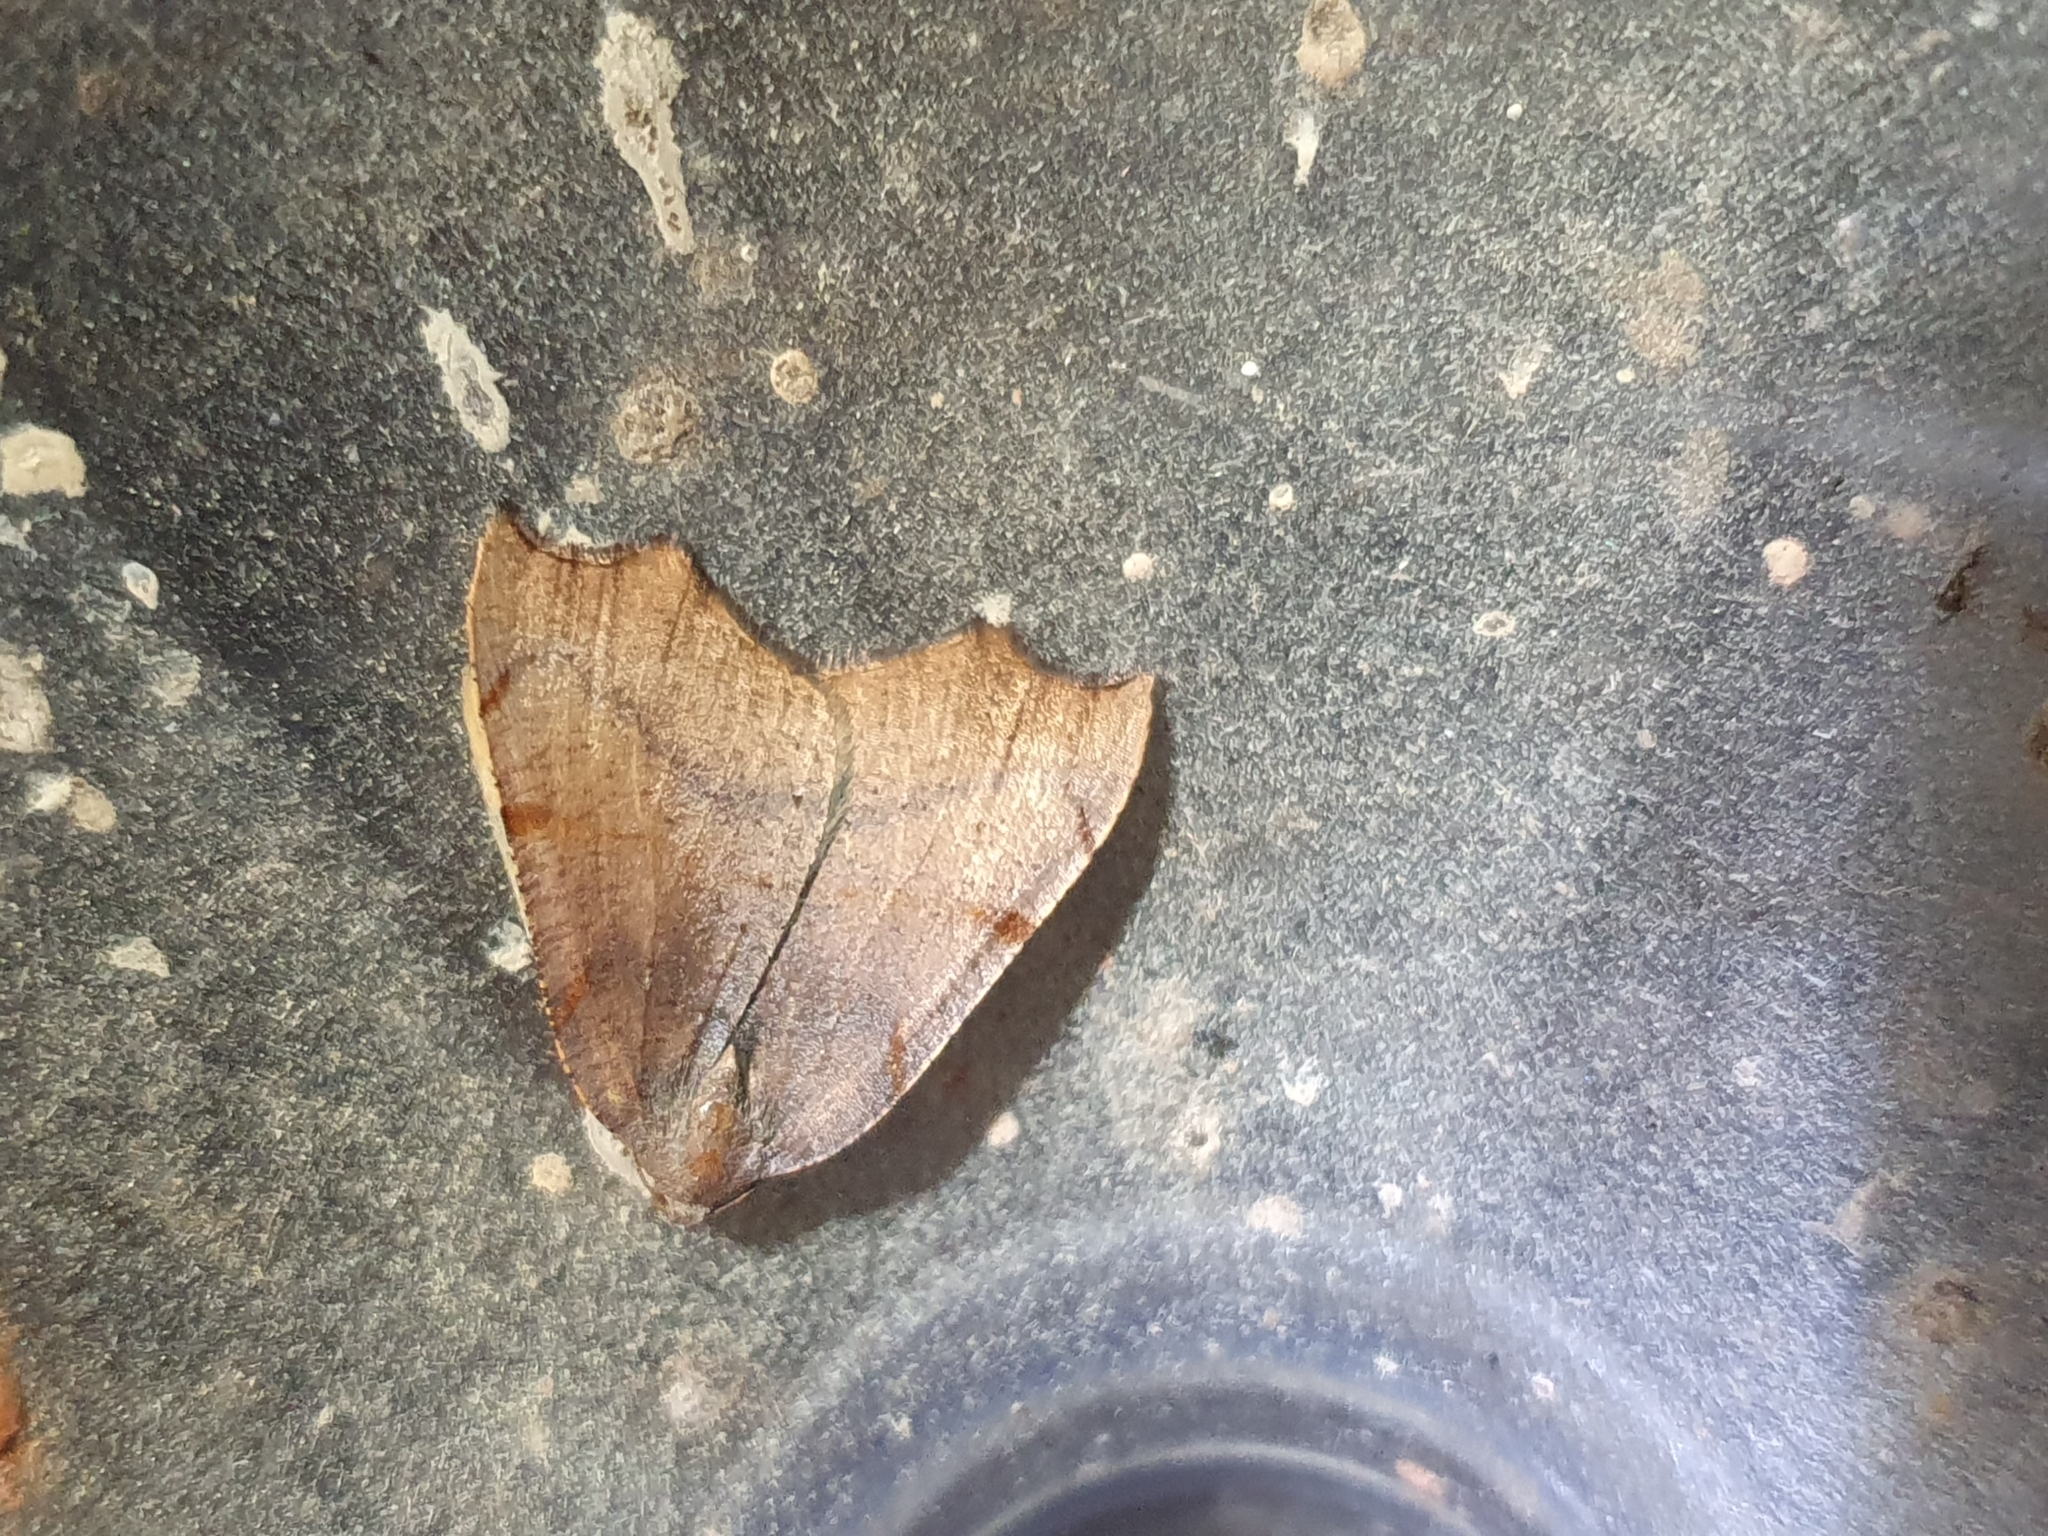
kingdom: Animalia
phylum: Arthropoda
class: Insecta
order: Lepidoptera
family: Geometridae
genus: Sestra
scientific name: Sestra flexata
